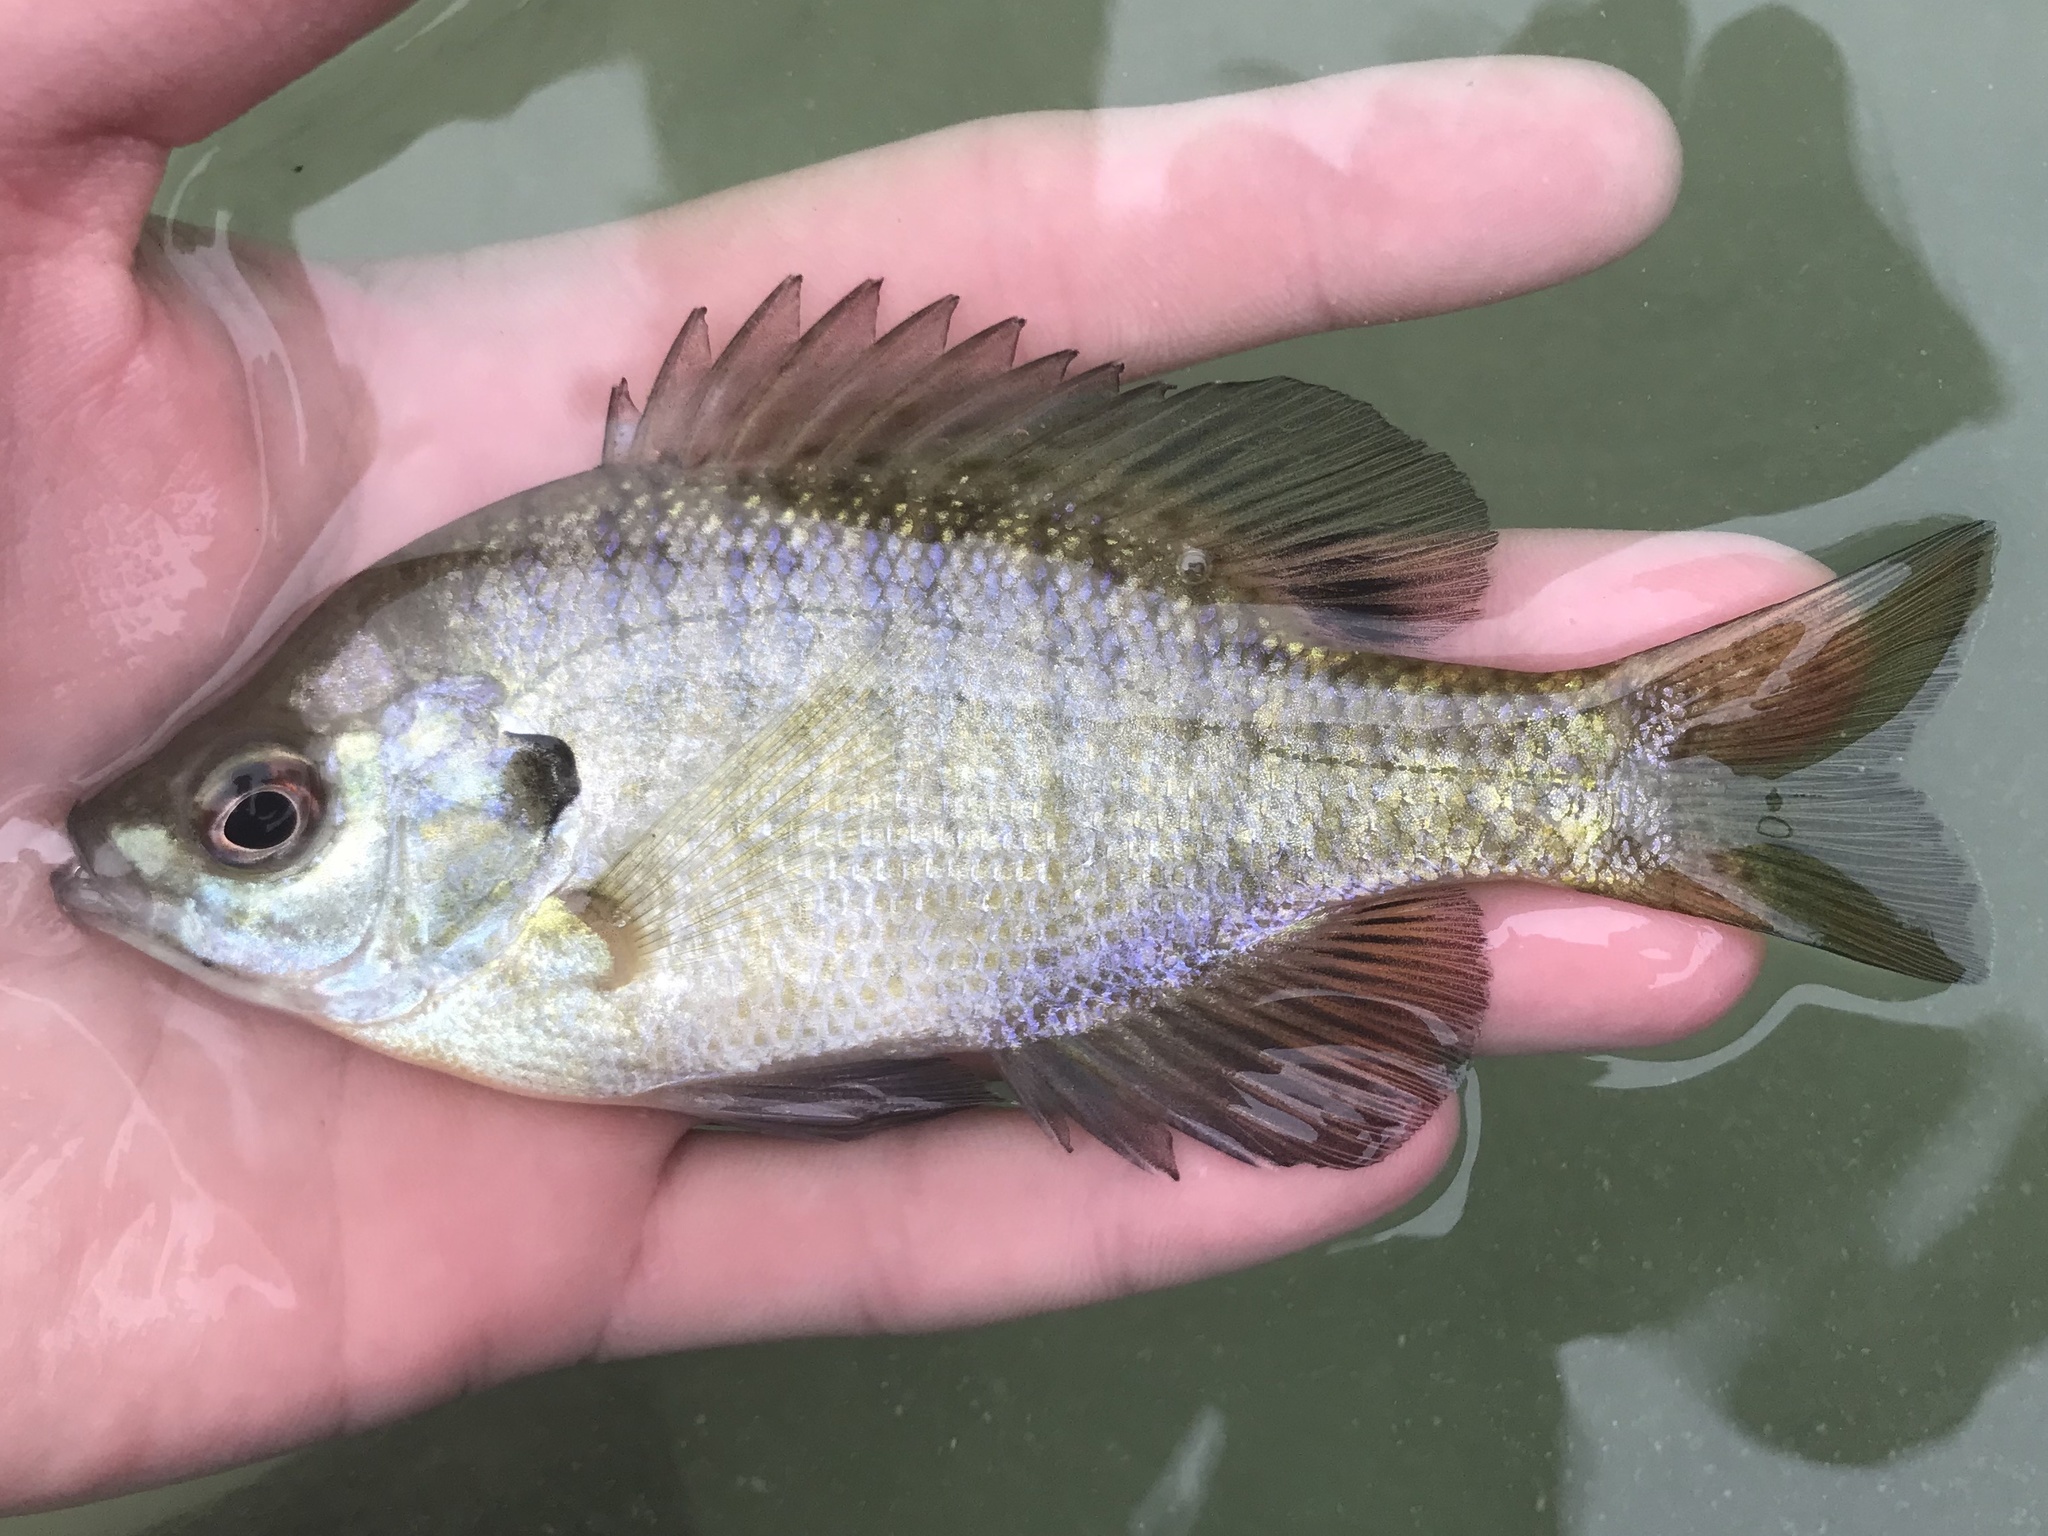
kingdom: Animalia
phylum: Chordata
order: Perciformes
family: Centrarchidae
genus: Lepomis
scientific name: Lepomis macrochirus
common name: Bluegill
